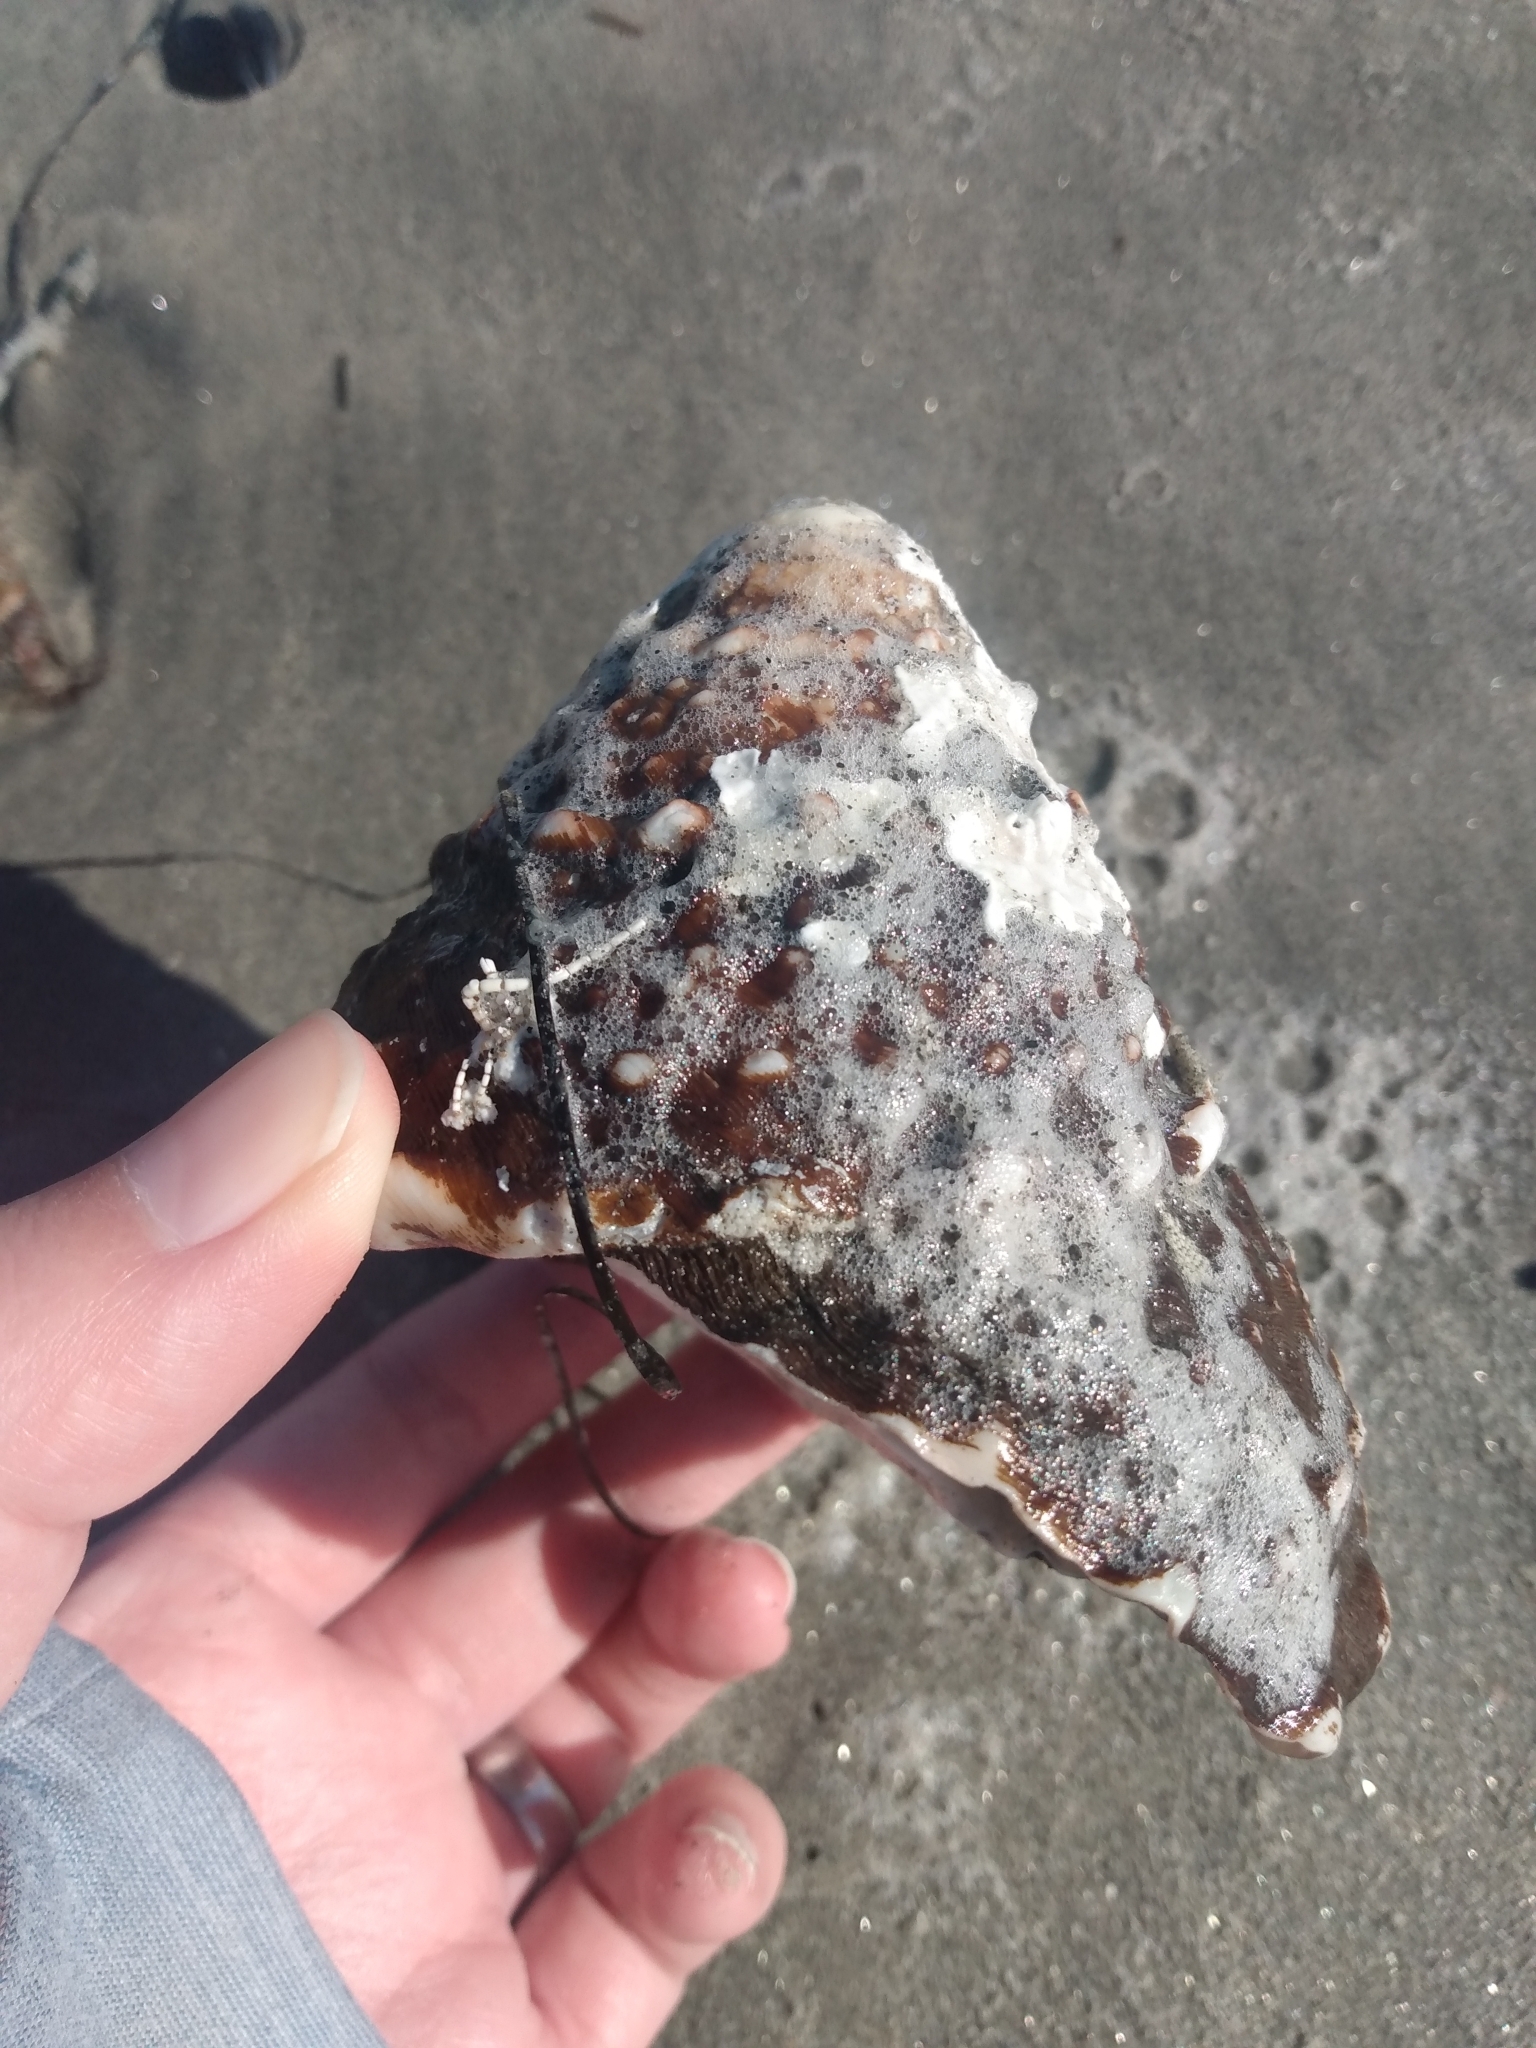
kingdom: Animalia
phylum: Mollusca
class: Gastropoda
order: Trochida
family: Turbinidae
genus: Megastraea
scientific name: Megastraea undosa
